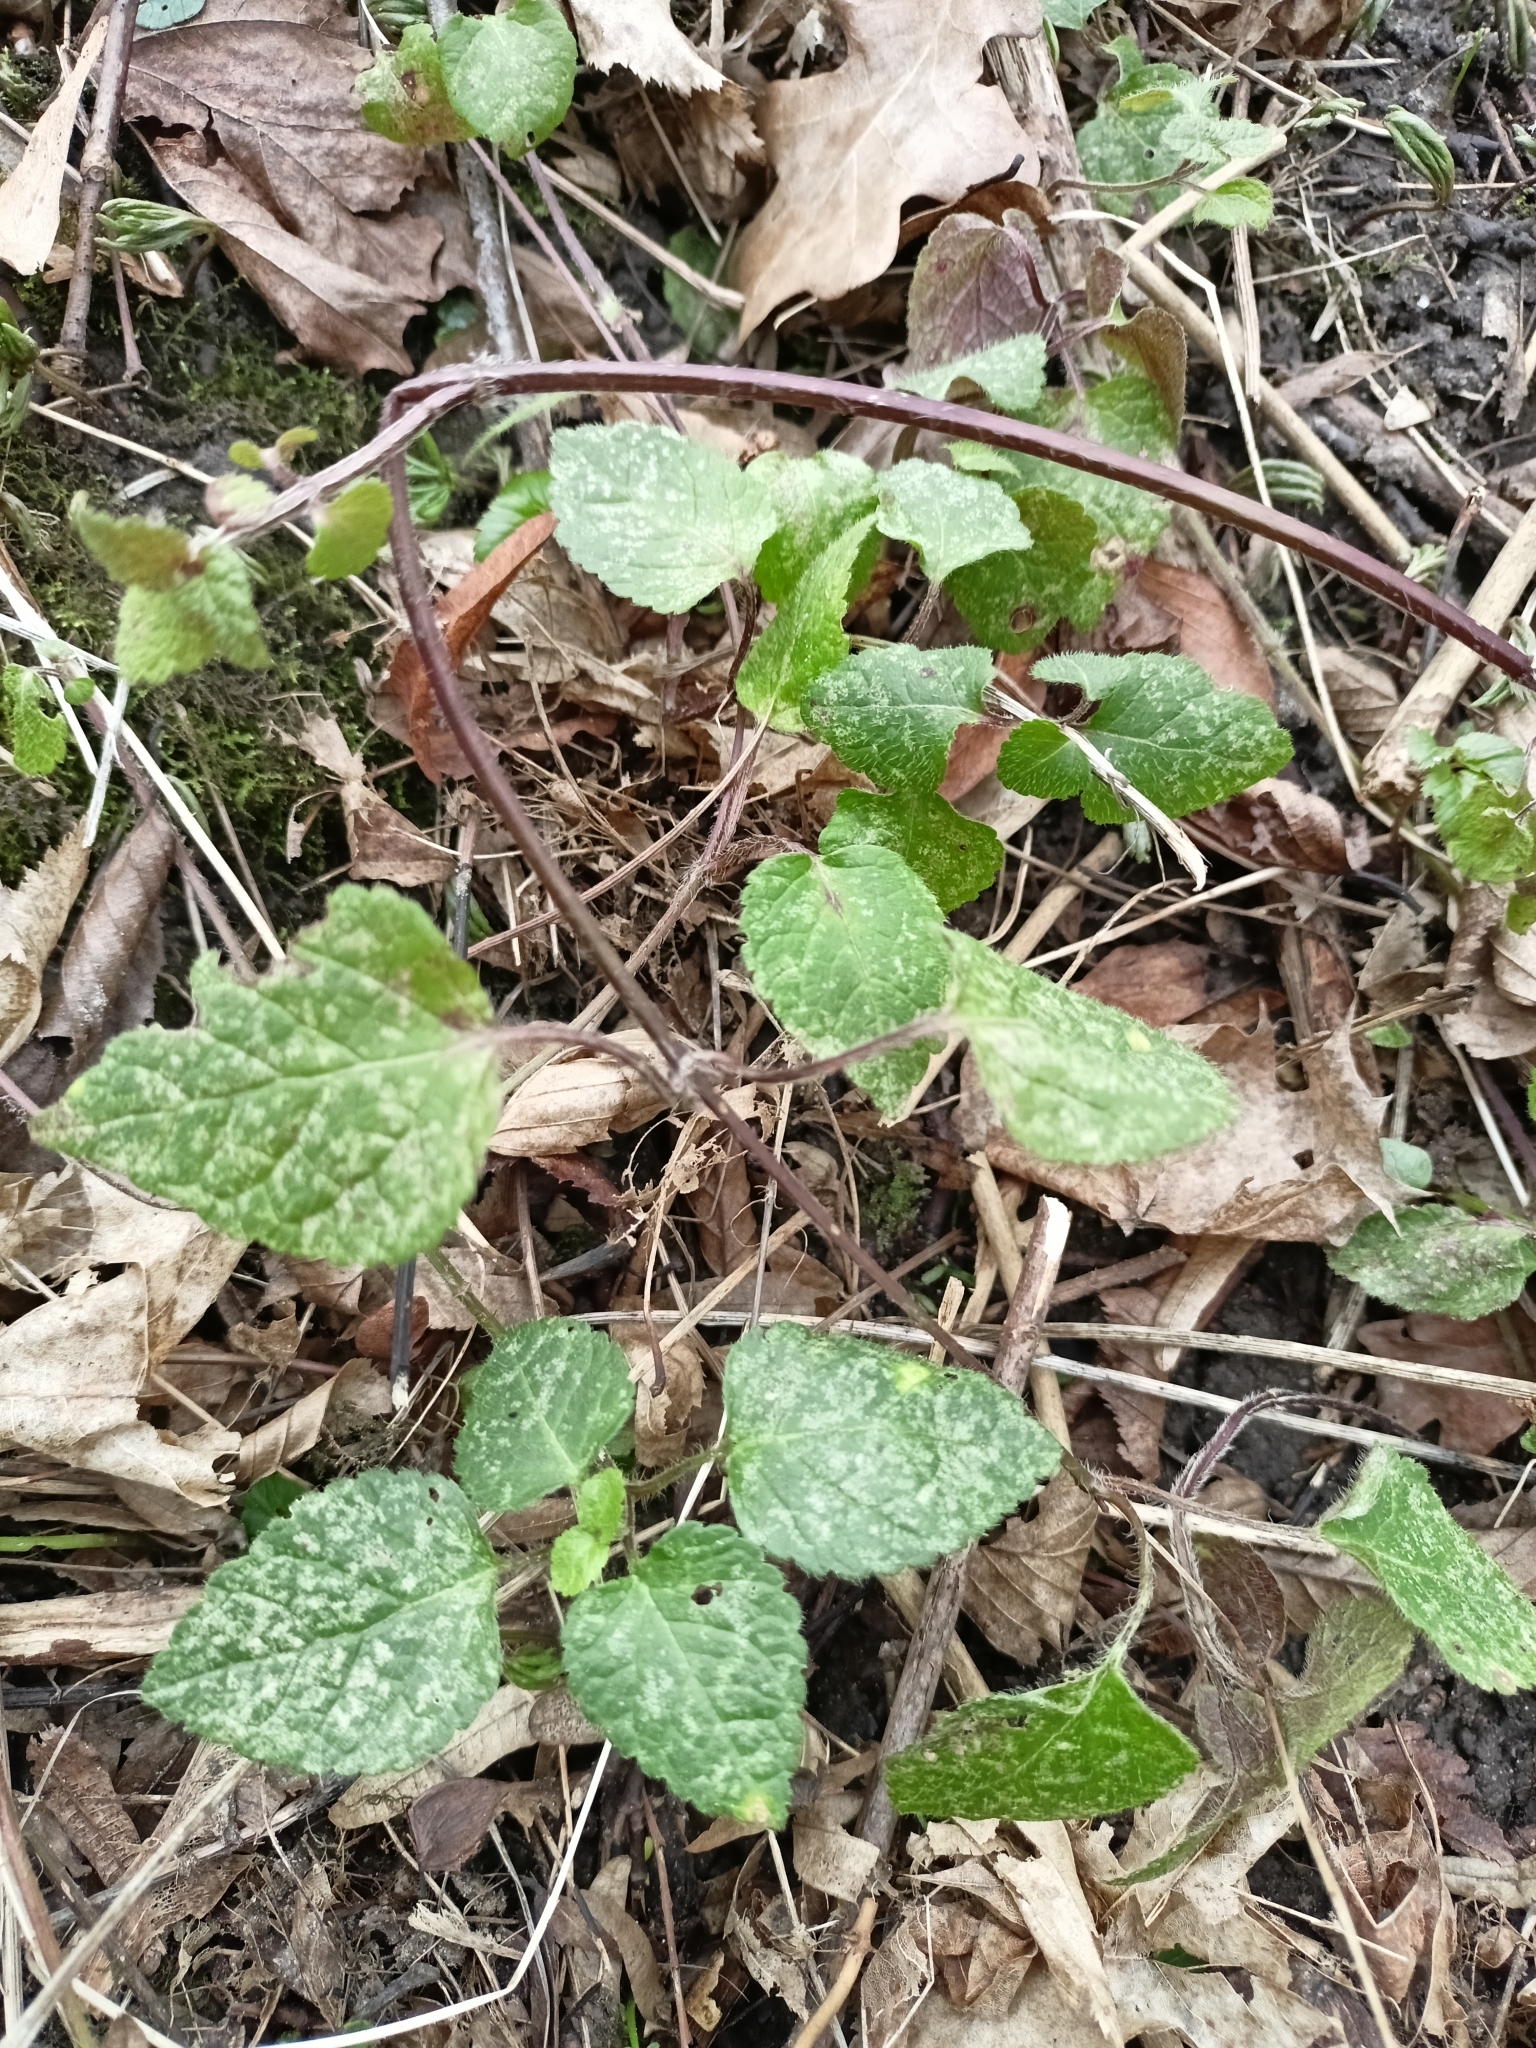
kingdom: Plantae
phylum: Tracheophyta
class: Magnoliopsida
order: Lamiales
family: Lamiaceae
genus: Lamium
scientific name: Lamium galeobdolon
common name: Yellow archangel
